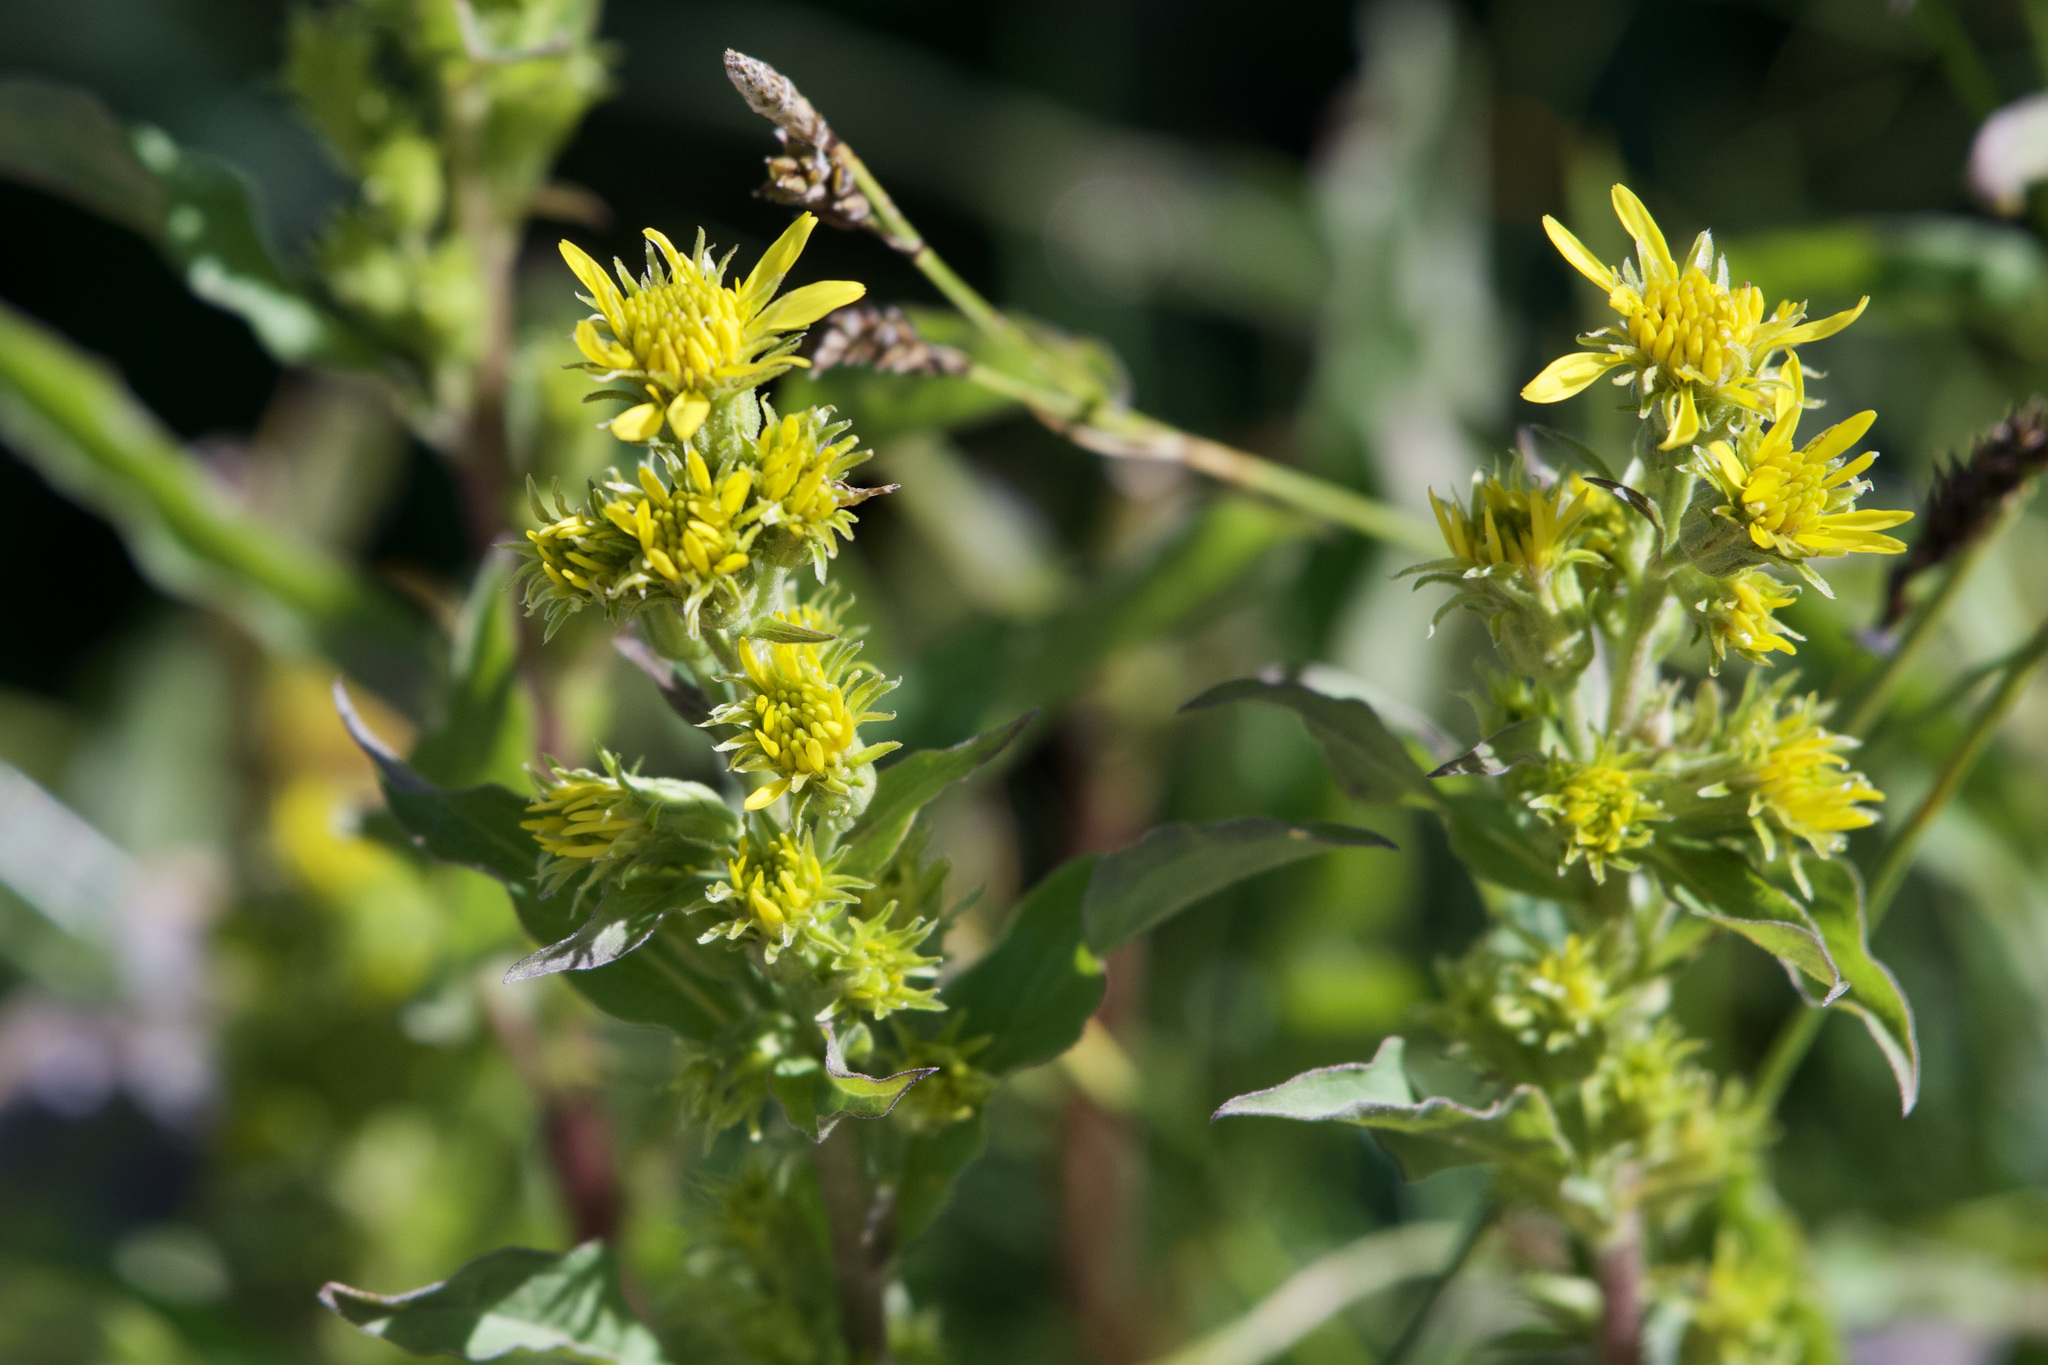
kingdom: Plantae
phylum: Tracheophyta
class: Magnoliopsida
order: Asterales
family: Asteraceae
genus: Solidago
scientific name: Solidago virgaurea
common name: Goldenrod
